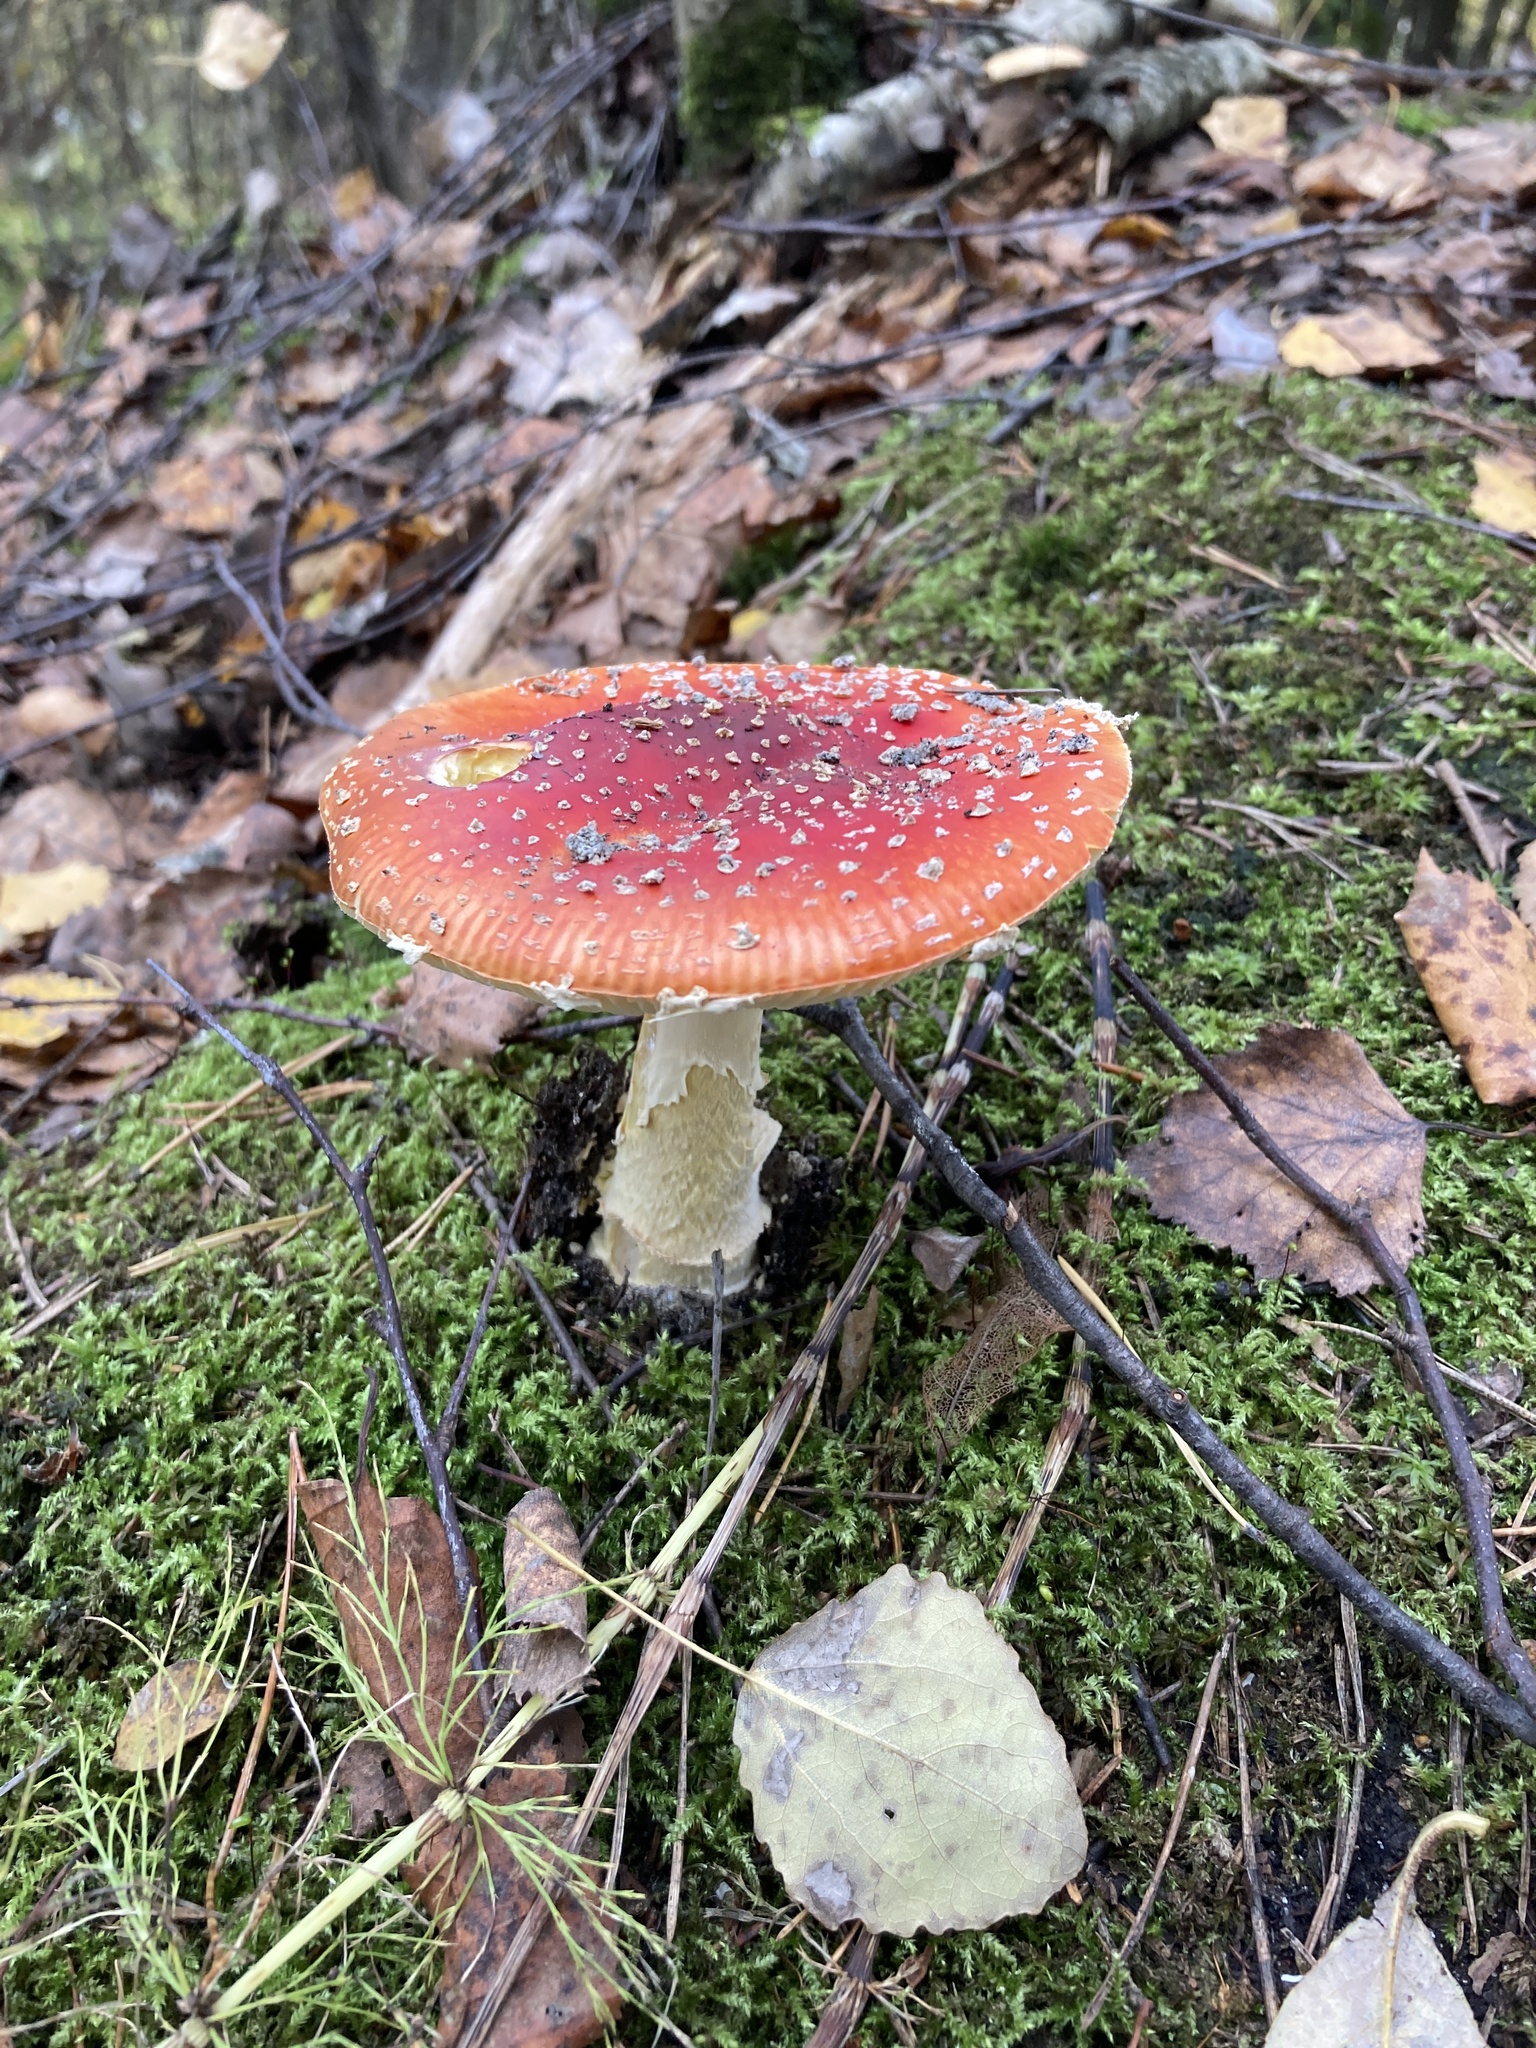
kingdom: Fungi
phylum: Basidiomycota
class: Agaricomycetes
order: Agaricales
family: Amanitaceae
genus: Amanita
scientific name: Amanita muscaria
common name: Fly agaric
